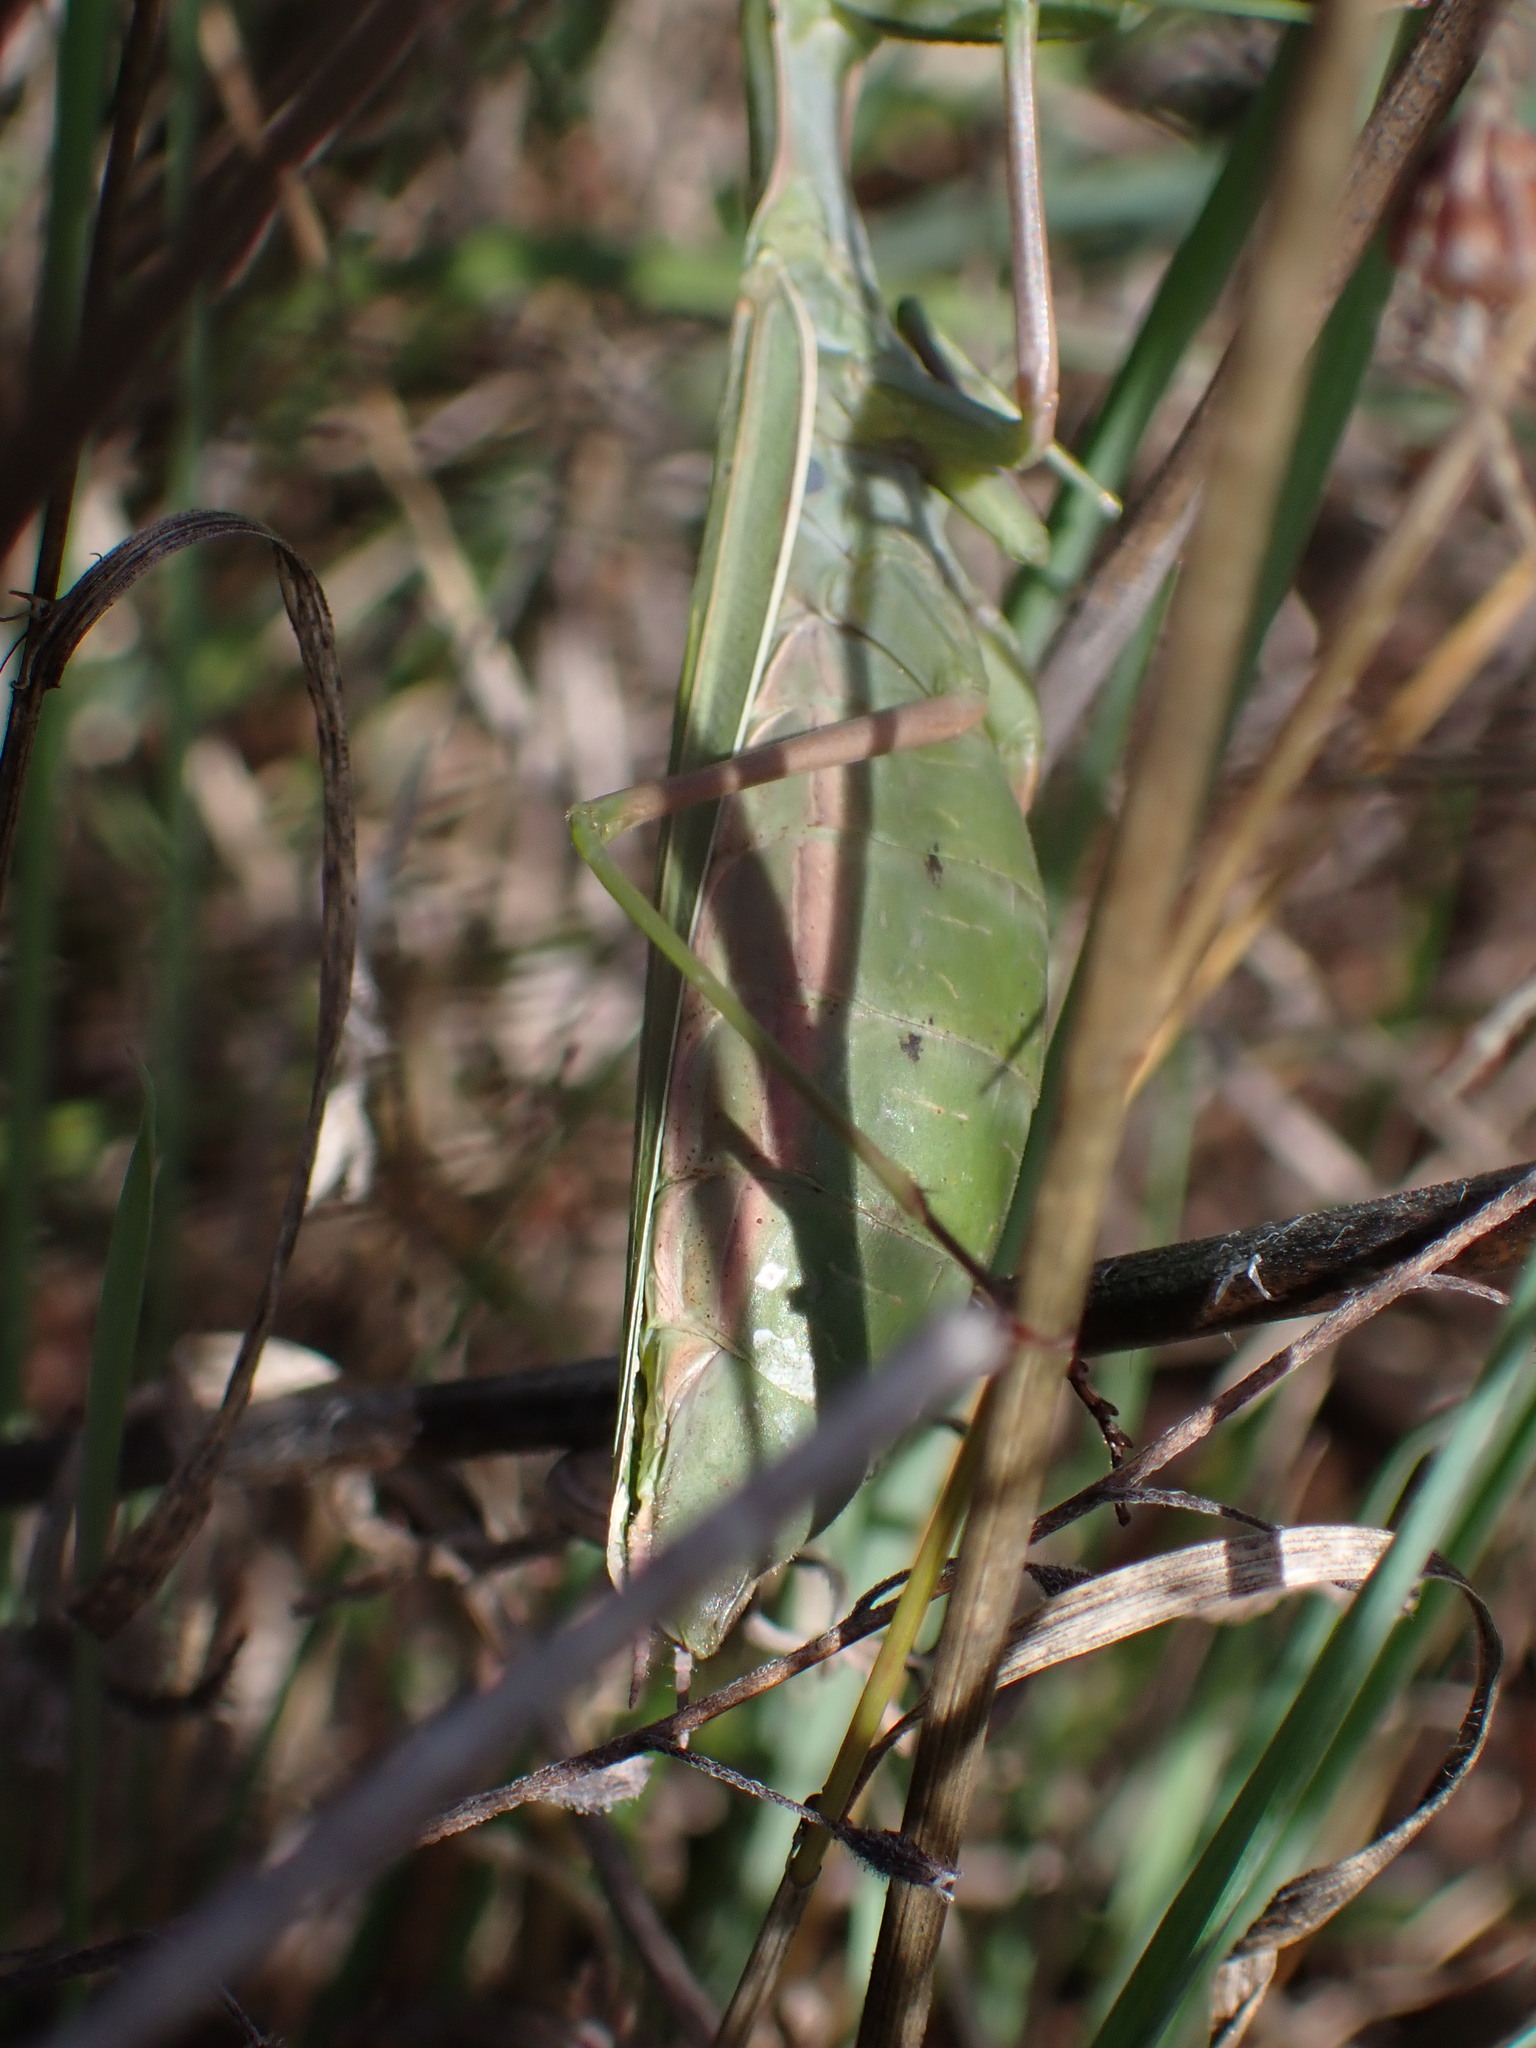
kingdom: Animalia
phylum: Arthropoda
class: Insecta
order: Mantodea
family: Mantidae
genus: Mantis
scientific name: Mantis religiosa
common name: Praying mantis
